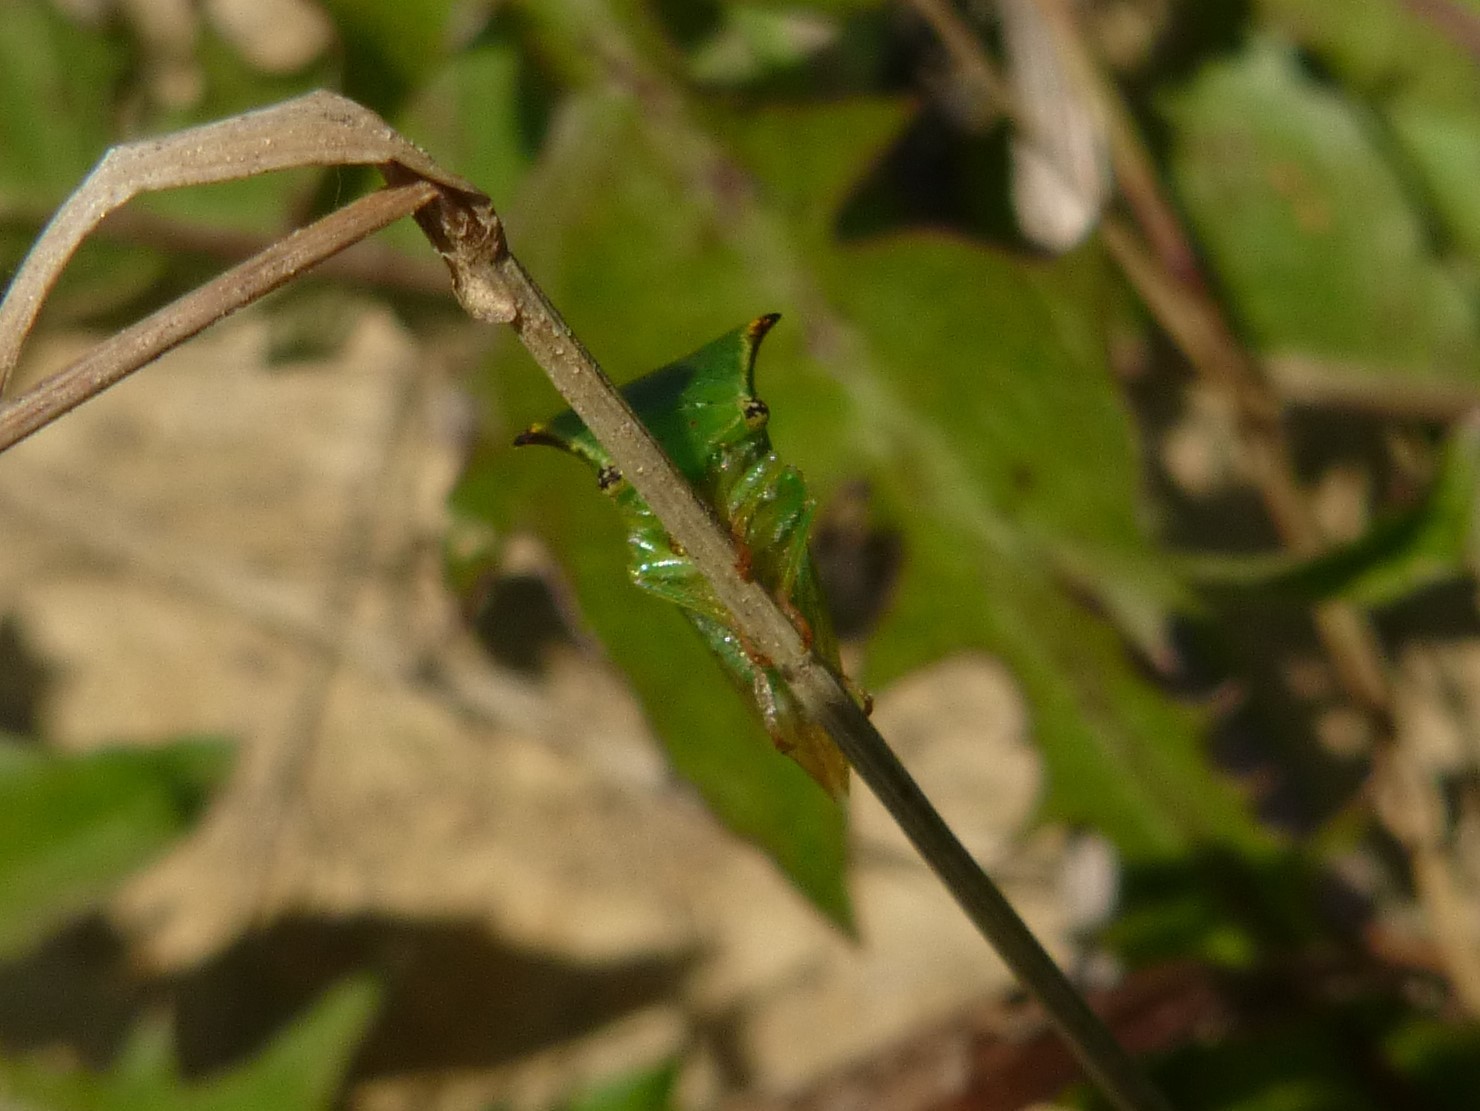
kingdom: Animalia
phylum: Arthropoda
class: Insecta
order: Hemiptera
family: Membracidae
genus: Stictocephala
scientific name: Stictocephala bisonia
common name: American buffalo treehopper
